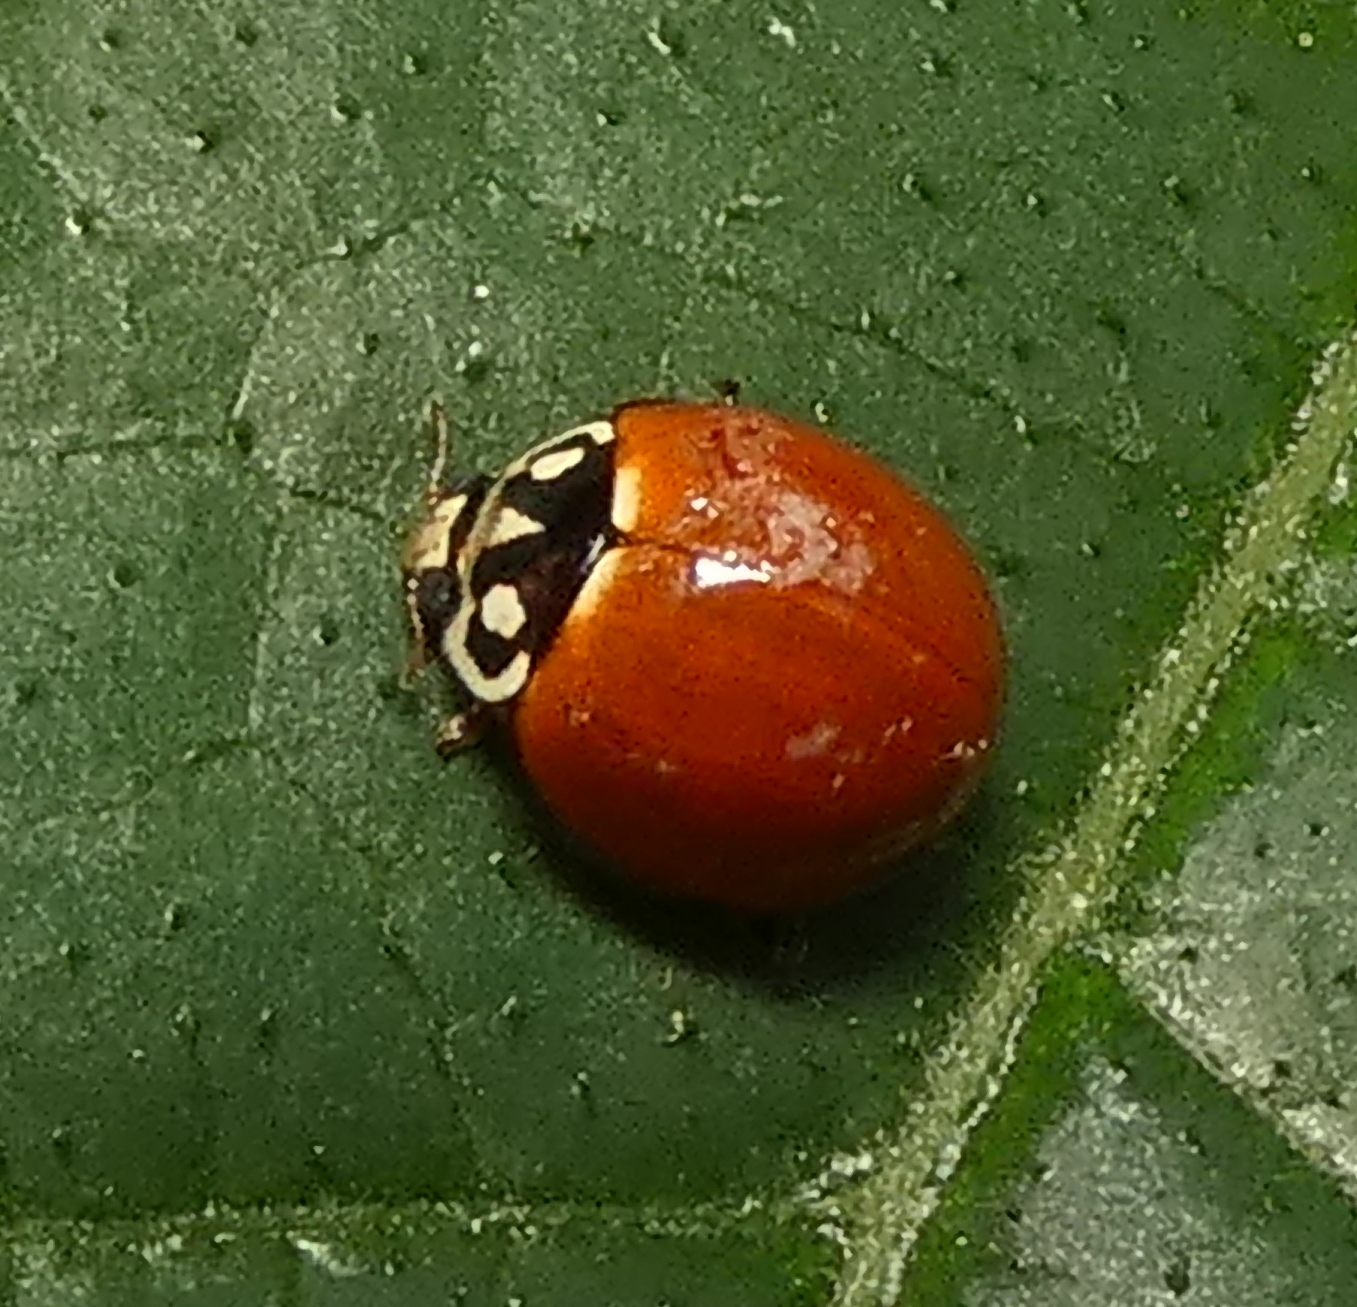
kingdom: Animalia
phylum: Arthropoda
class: Insecta
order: Coleoptera
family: Coccinellidae
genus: Cycloneda
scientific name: Cycloneda sanguinea
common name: Ladybird beetle
